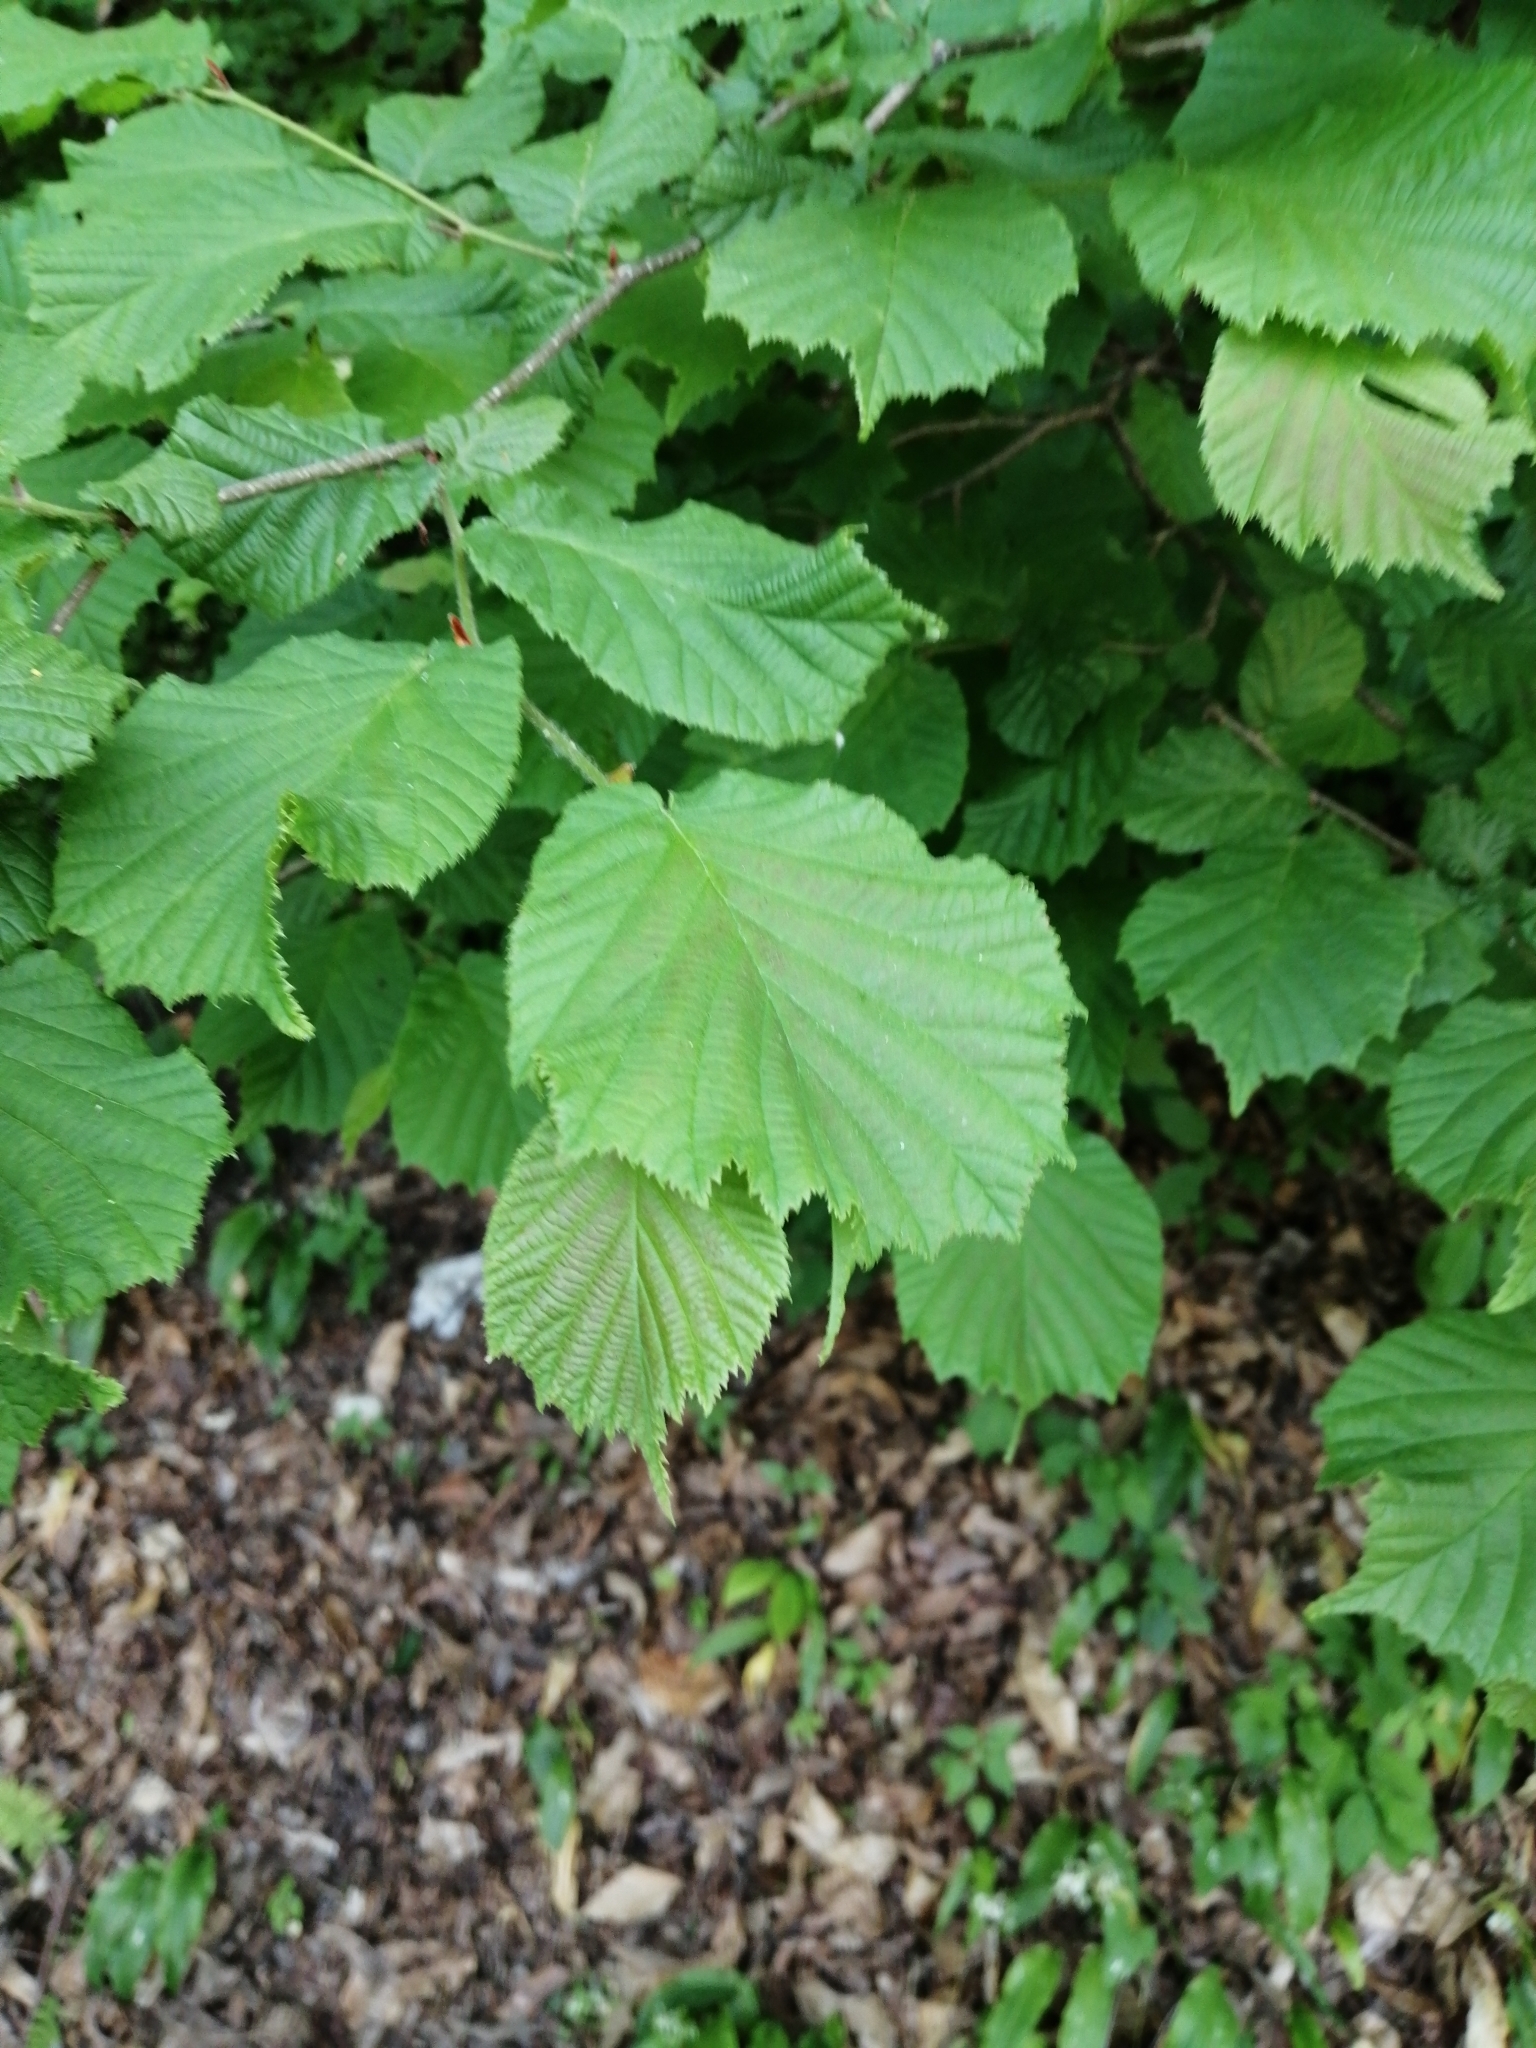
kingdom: Plantae
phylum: Tracheophyta
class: Magnoliopsida
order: Fagales
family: Betulaceae
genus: Corylus
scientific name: Corylus avellana
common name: European hazel
